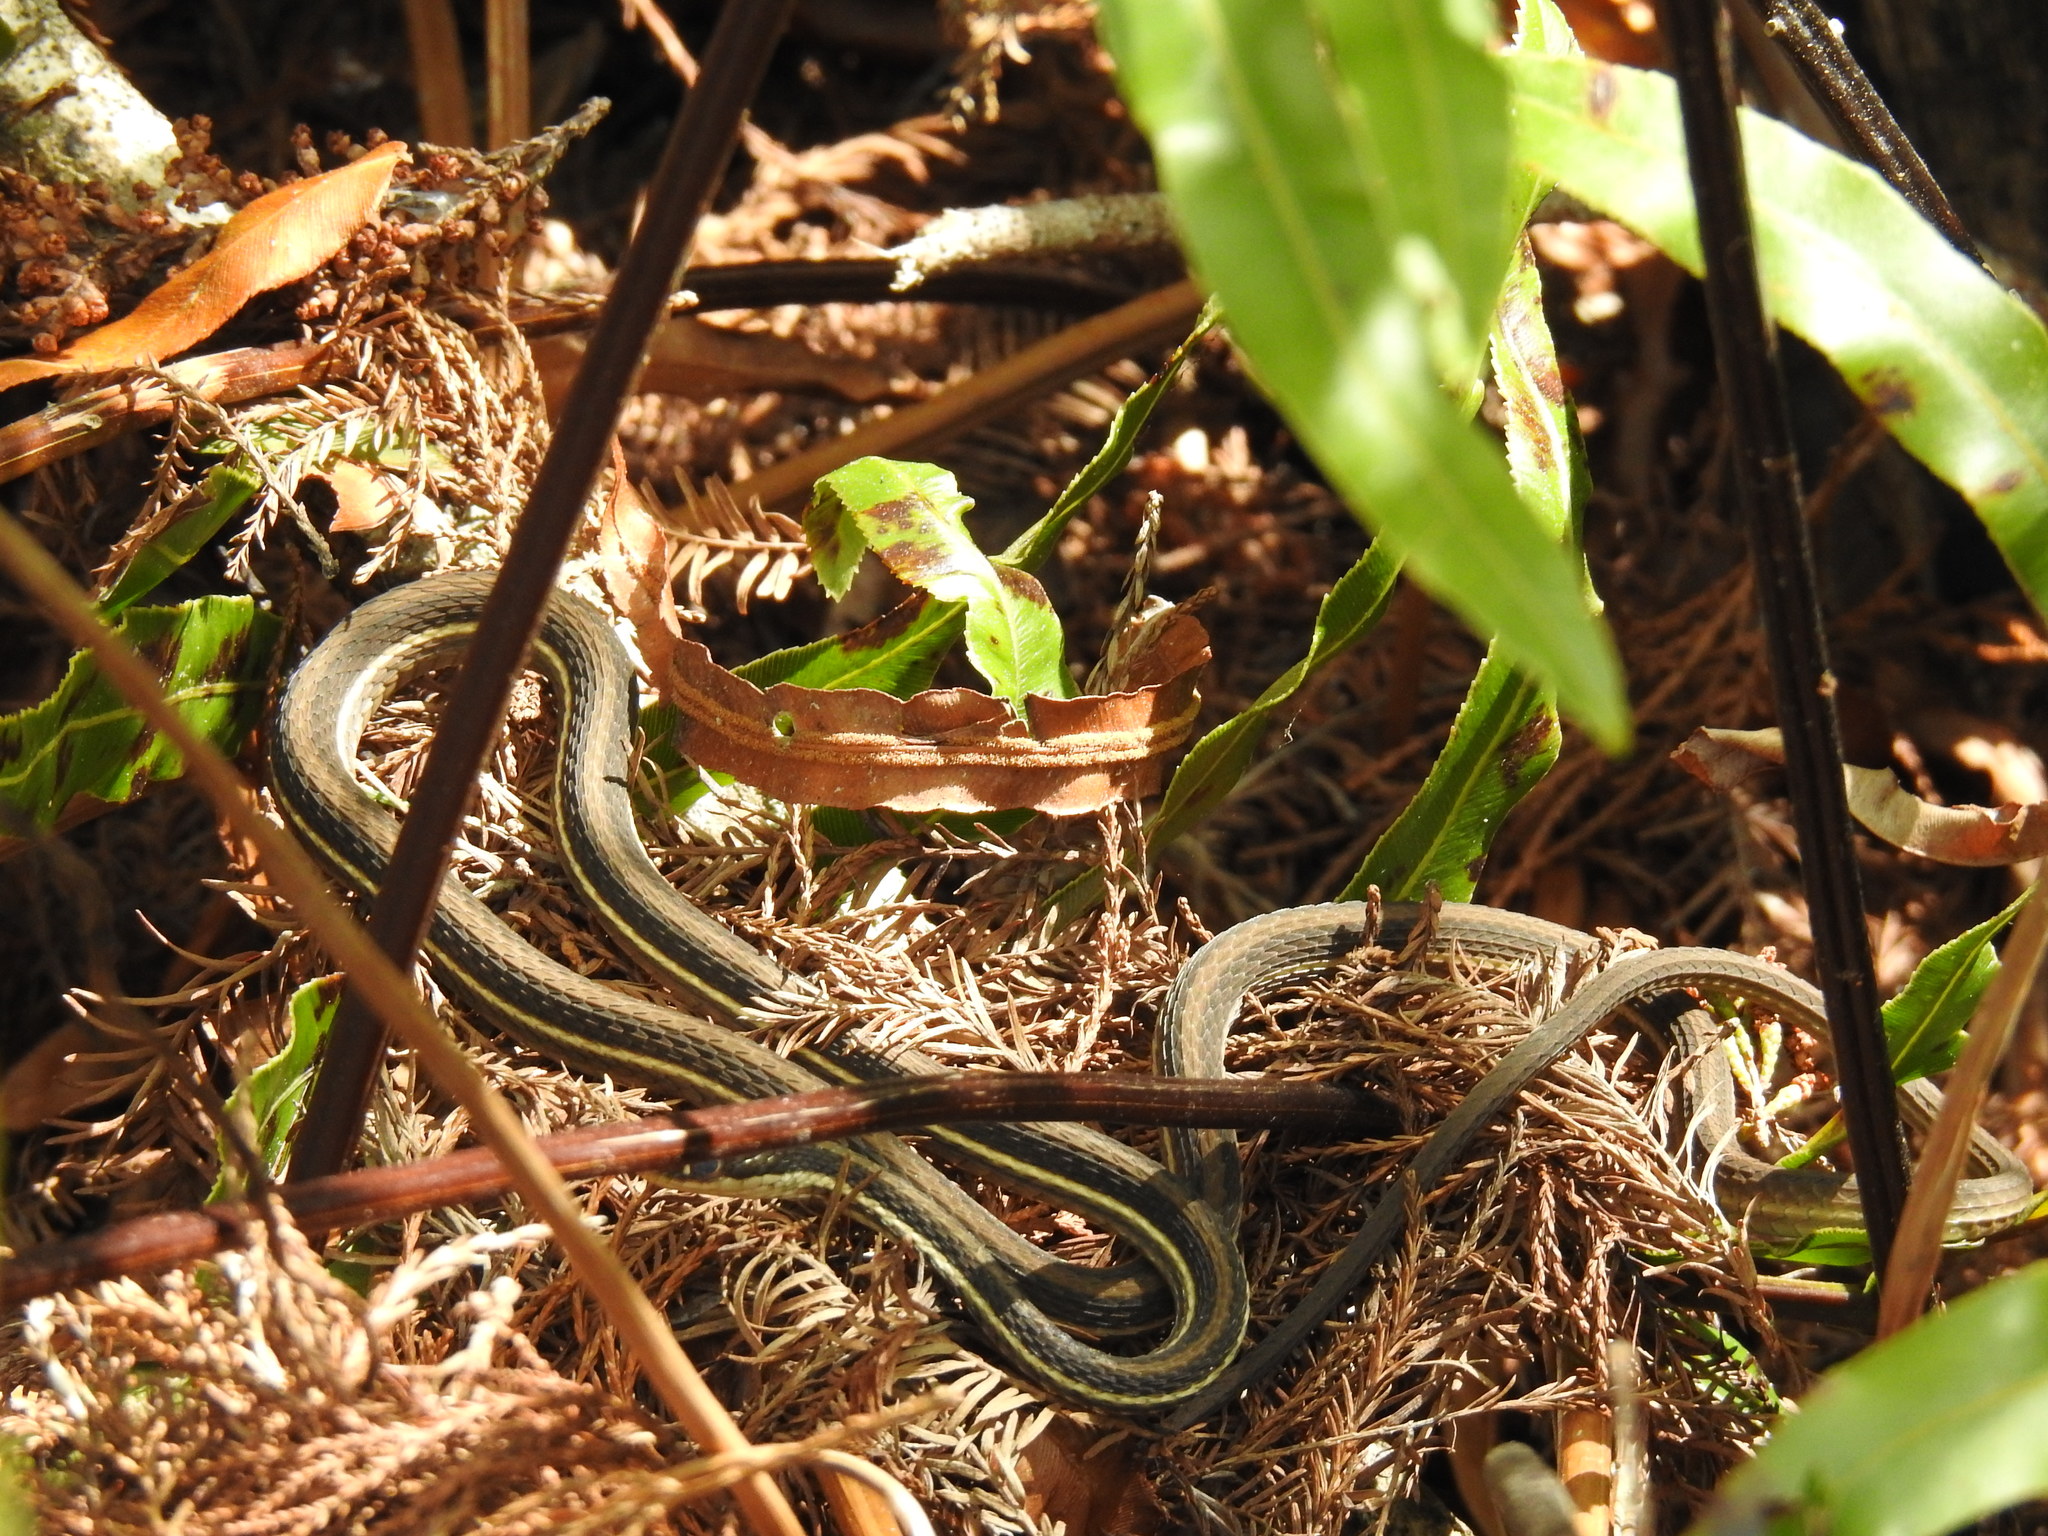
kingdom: Animalia
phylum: Chordata
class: Squamata
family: Colubridae
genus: Thamnophis
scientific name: Thamnophis saurita
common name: Eastern ribbonsnake
